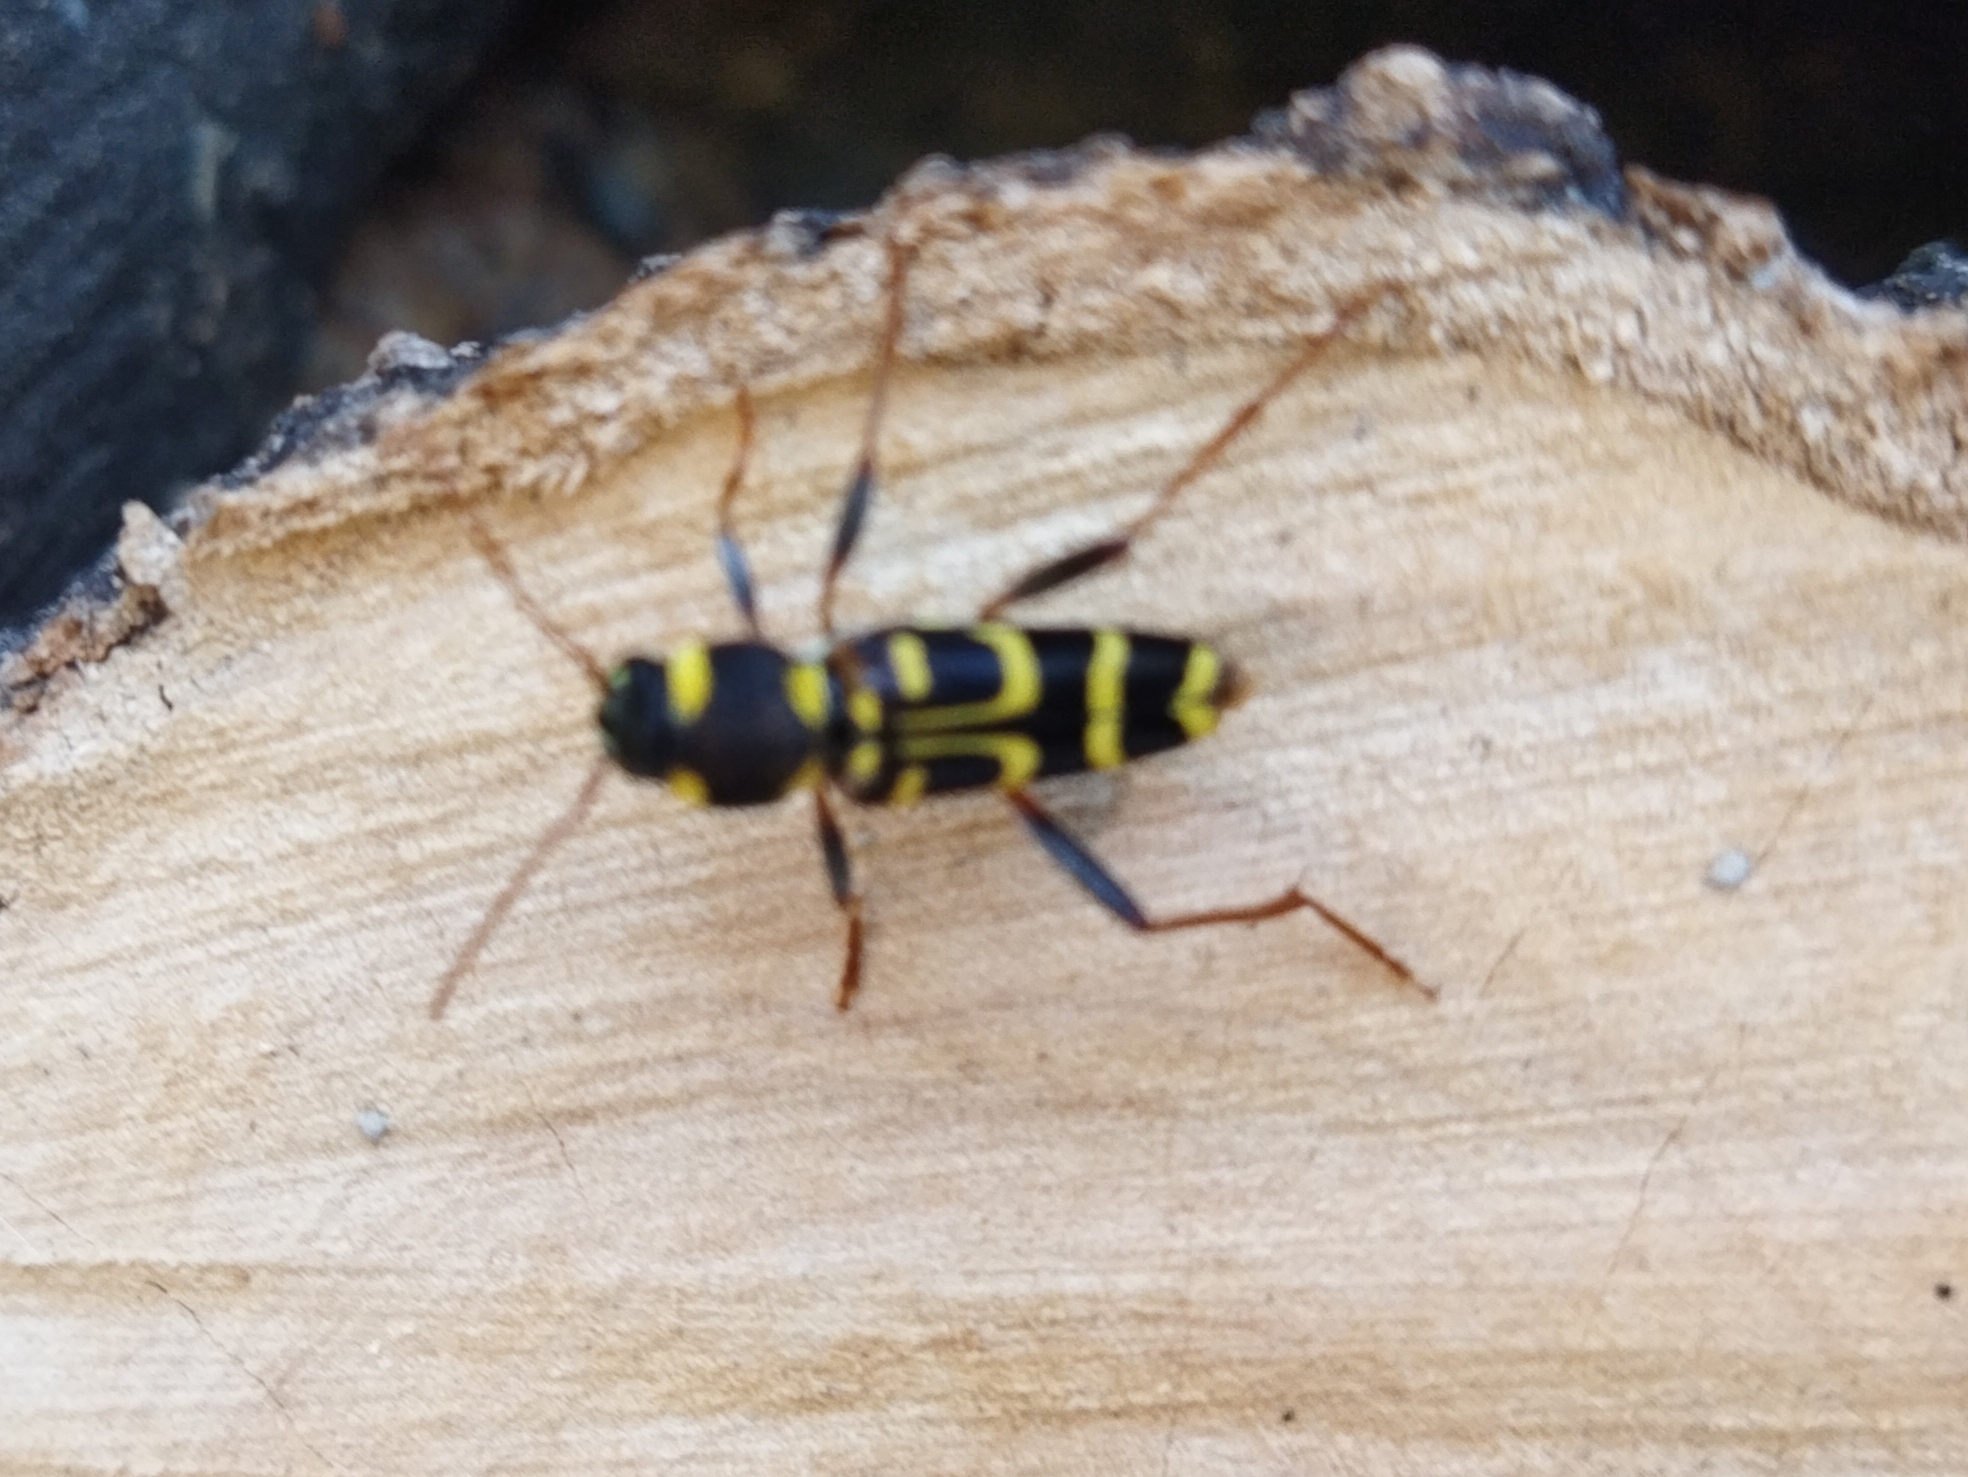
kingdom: Animalia
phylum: Arthropoda
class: Insecta
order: Coleoptera
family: Cerambycidae
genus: Xylotrechus
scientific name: Xylotrechus arvicola
